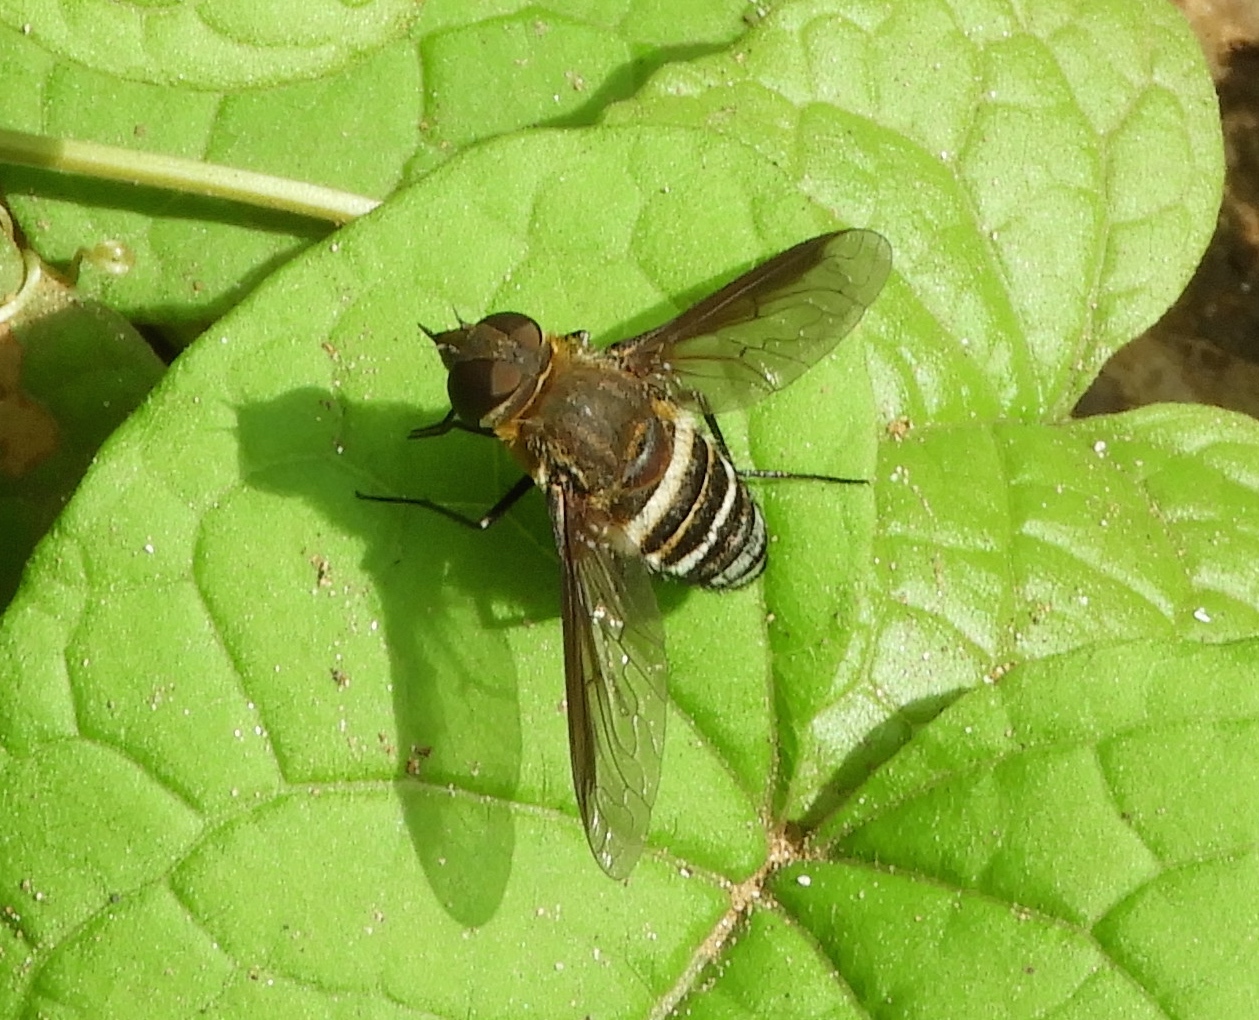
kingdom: Animalia
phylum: Arthropoda
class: Insecta
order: Diptera
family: Bombyliidae
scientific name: Bombyliidae
